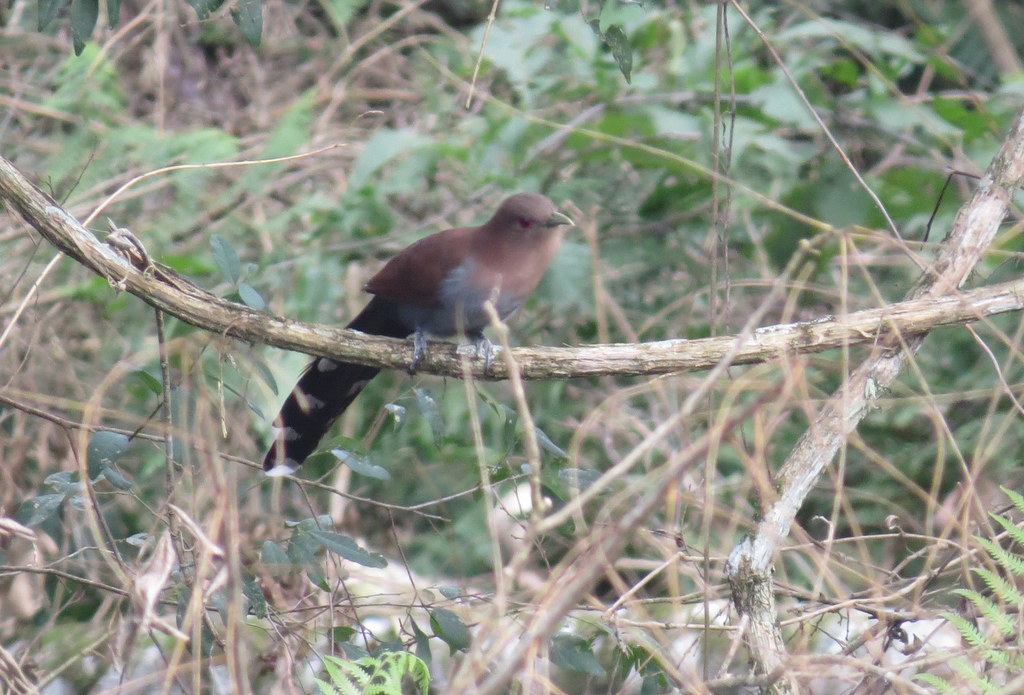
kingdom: Animalia
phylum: Chordata
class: Aves
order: Cuculiformes
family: Cuculidae
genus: Piaya
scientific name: Piaya cayana
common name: Squirrel cuckoo
